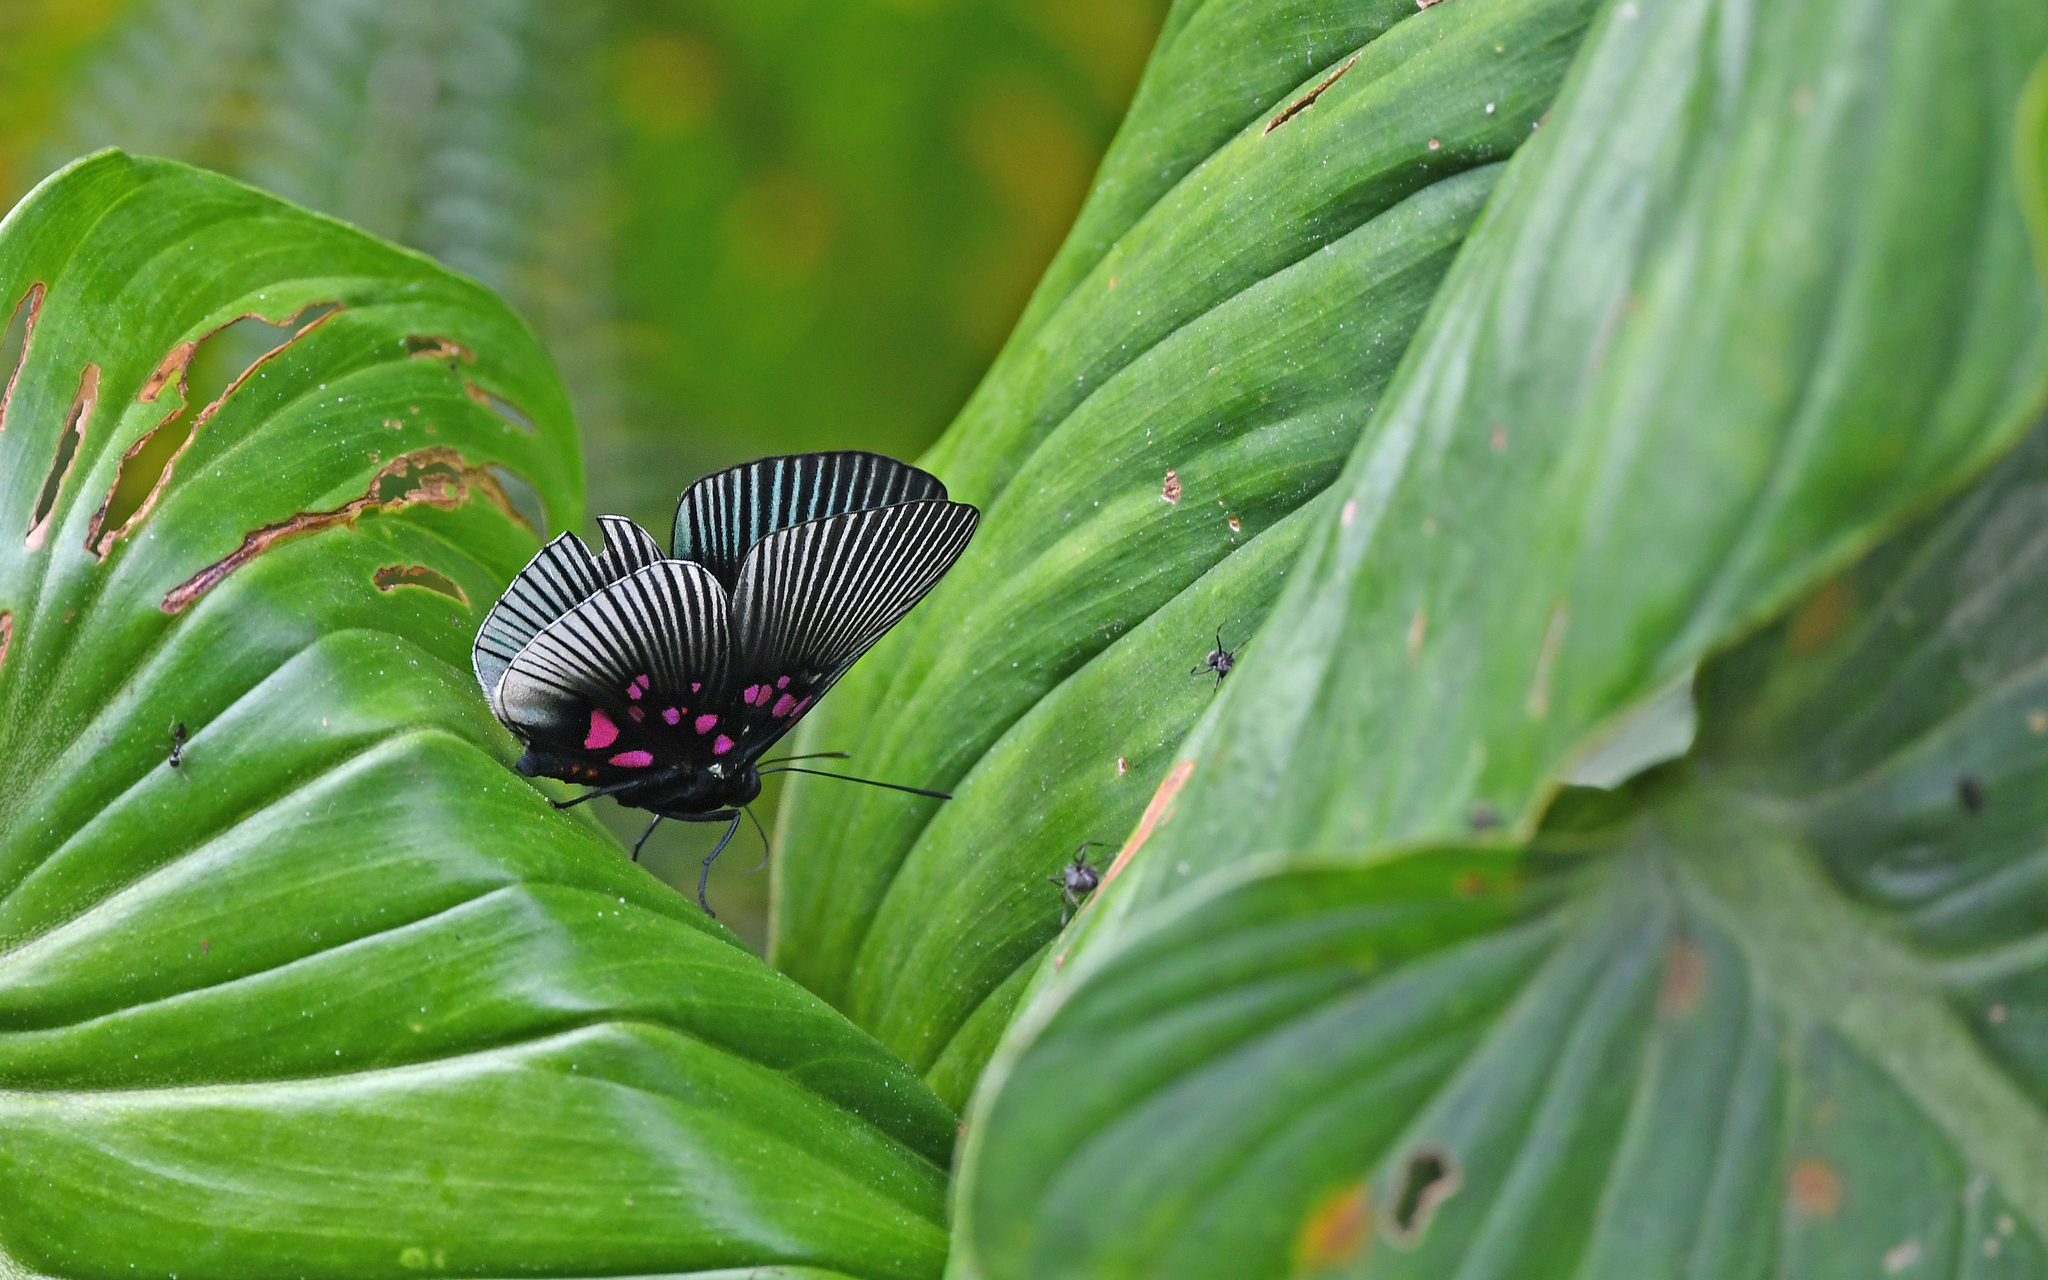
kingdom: Animalia
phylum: Arthropoda
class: Insecta
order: Lepidoptera
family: Riodinidae
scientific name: Riodinidae
